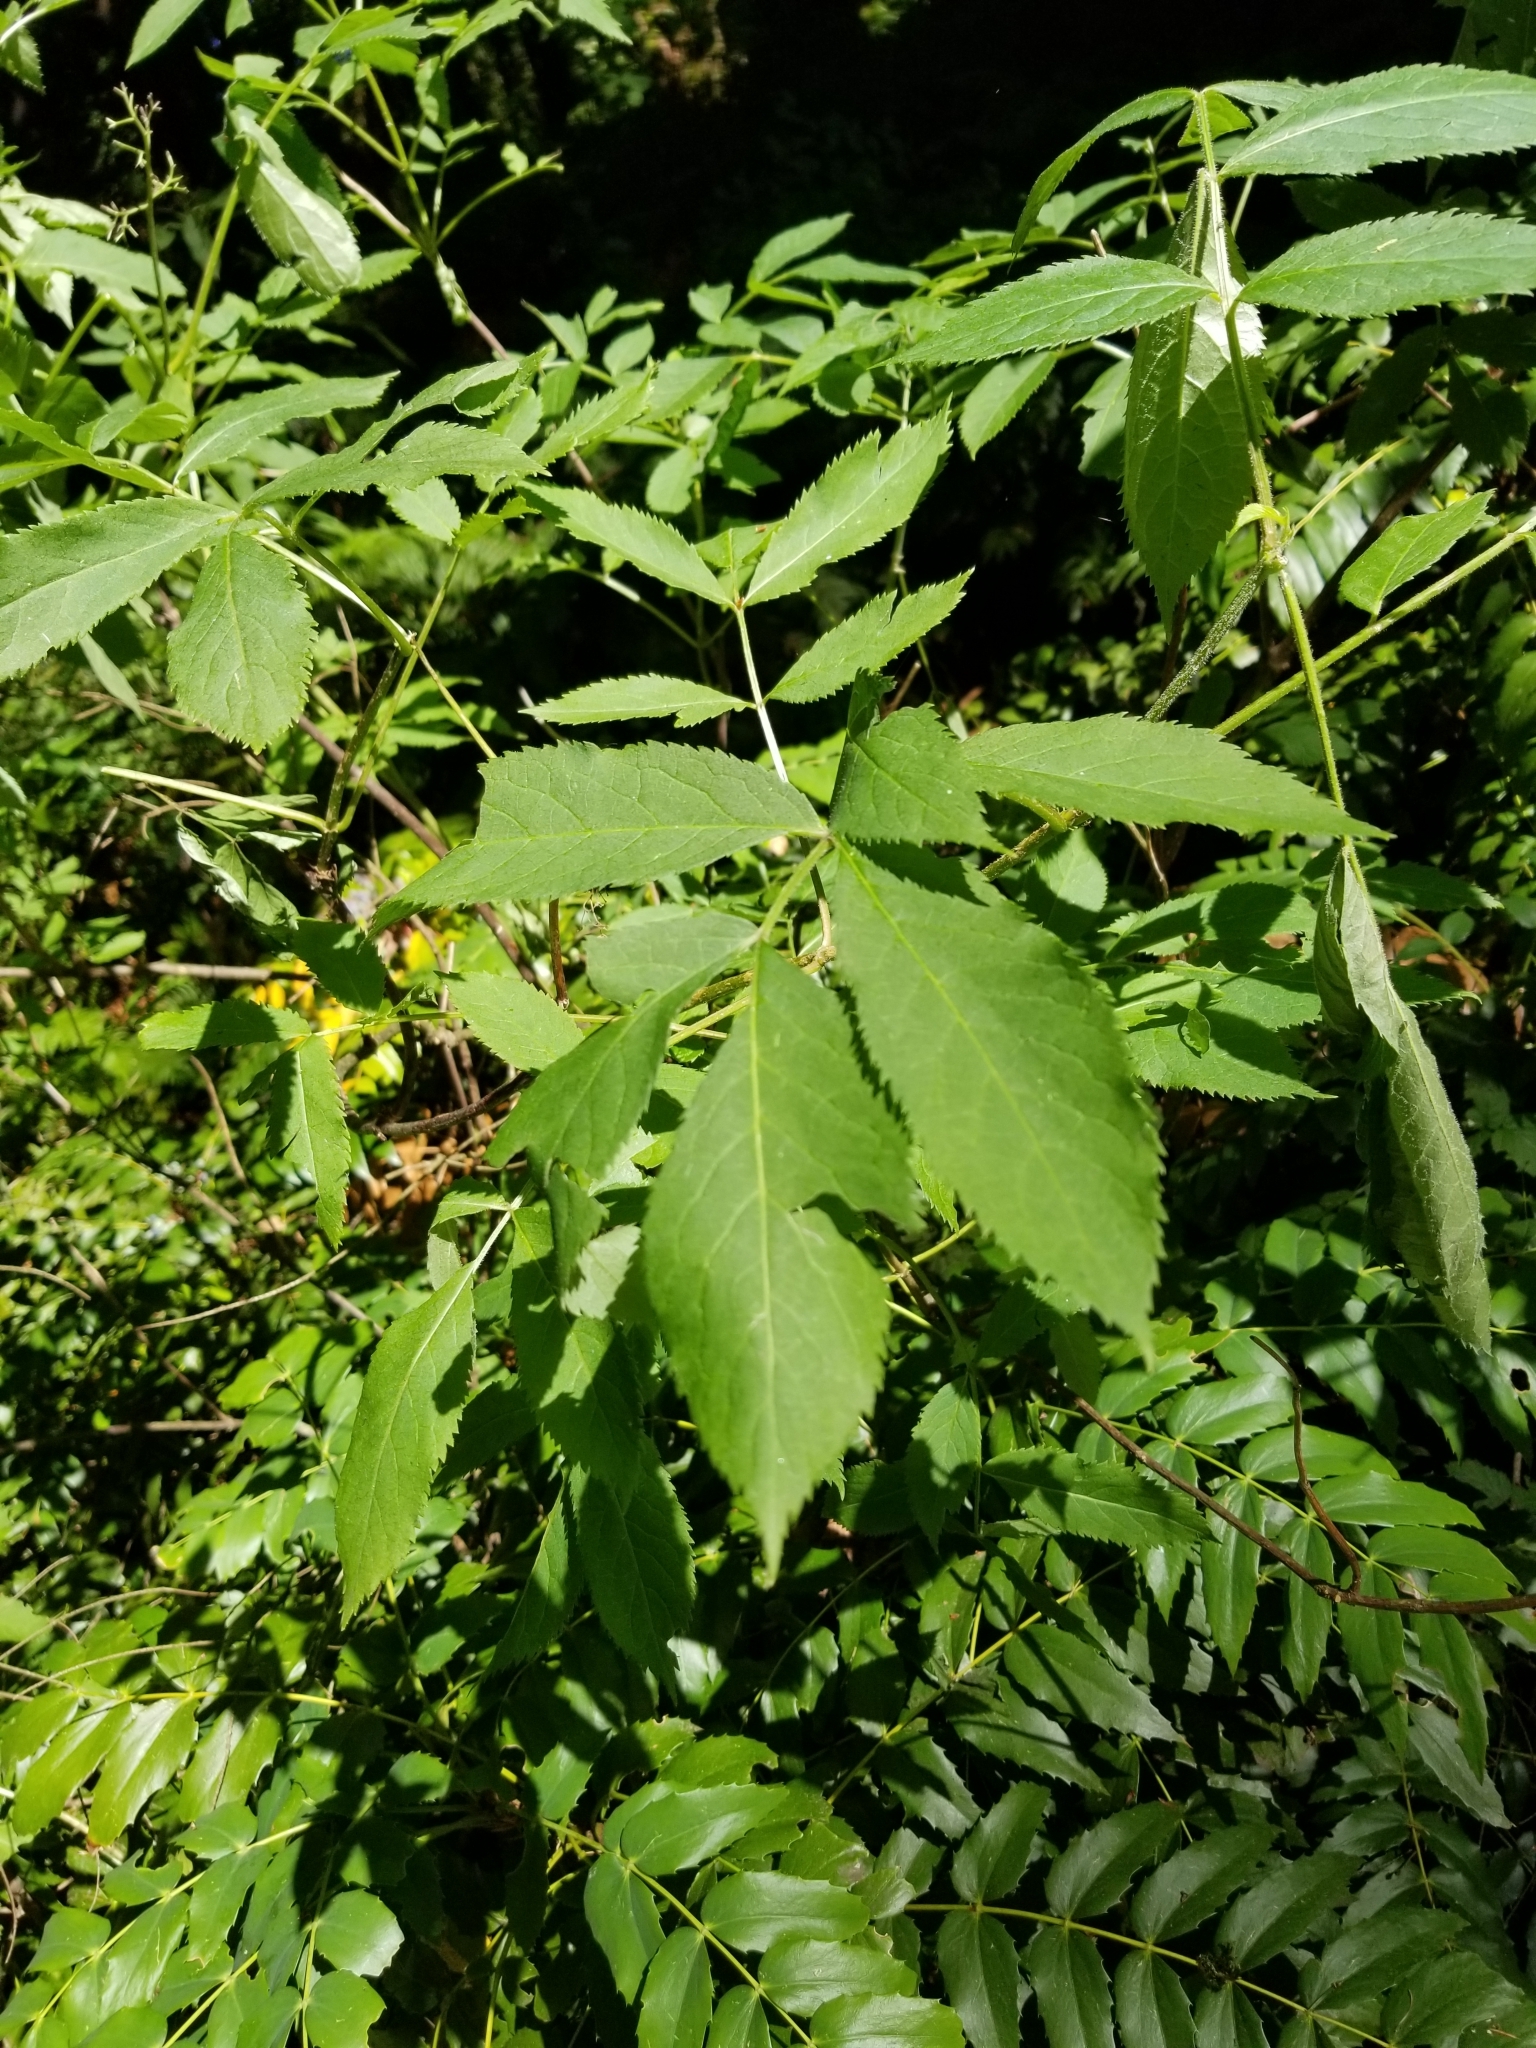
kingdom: Plantae
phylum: Tracheophyta
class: Magnoliopsida
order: Dipsacales
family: Viburnaceae
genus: Sambucus
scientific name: Sambucus racemosa
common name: Red-berried elder
